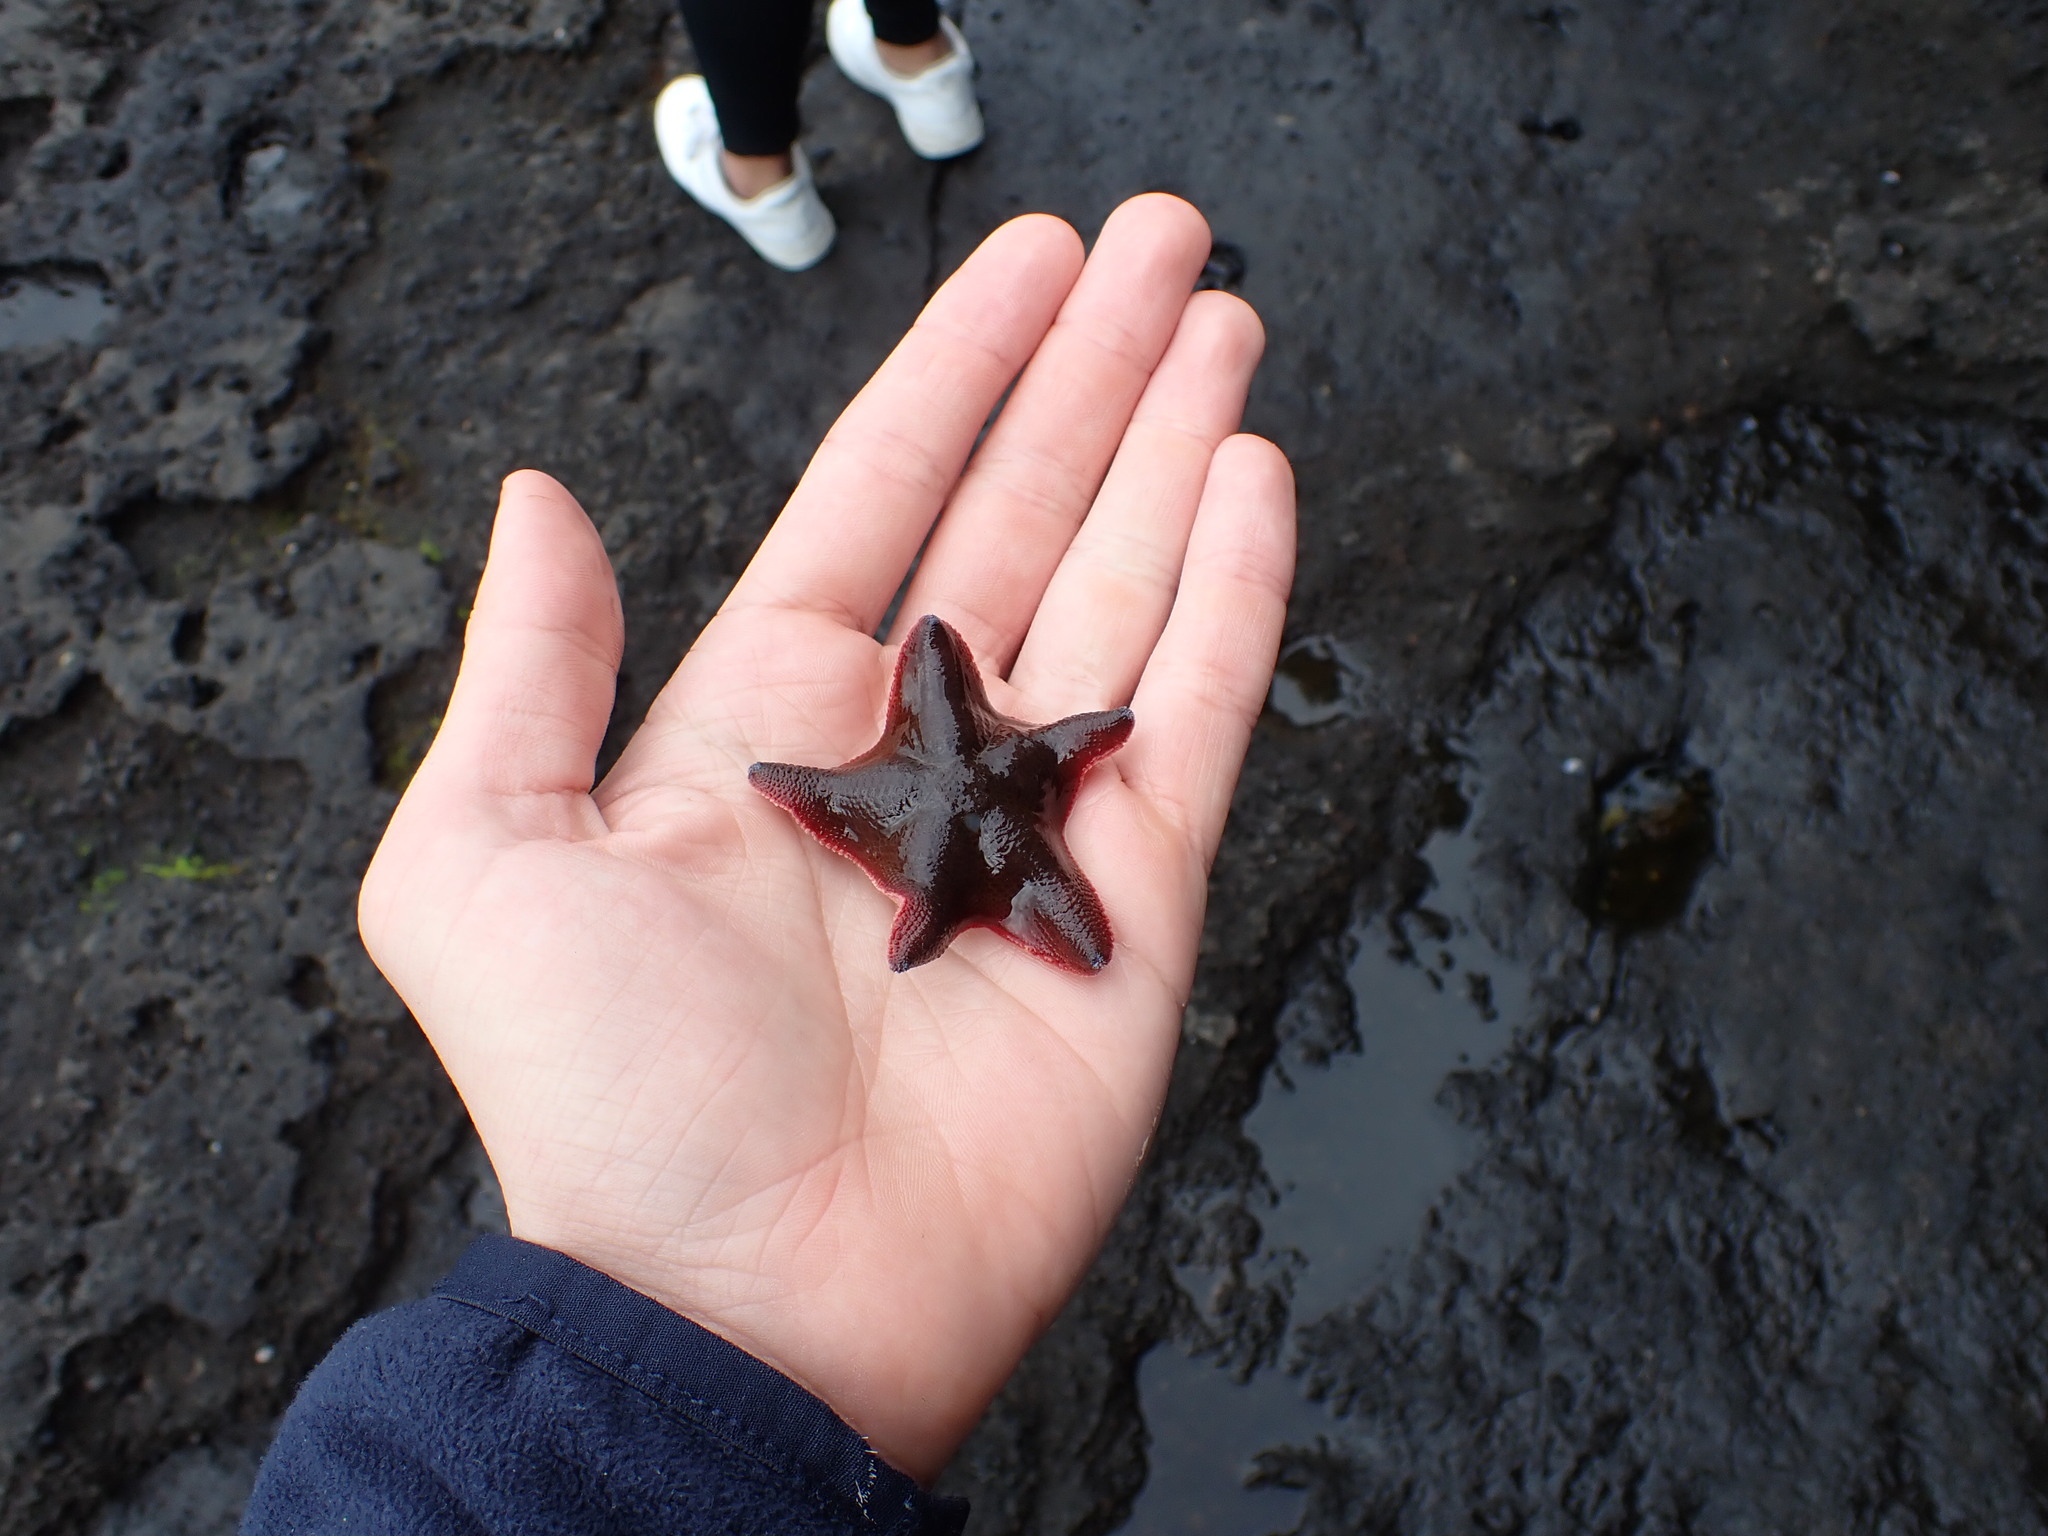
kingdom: Animalia
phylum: Echinodermata
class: Asteroidea
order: Valvatida
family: Asterinidae
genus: Patiriella
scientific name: Patiriella regularis
